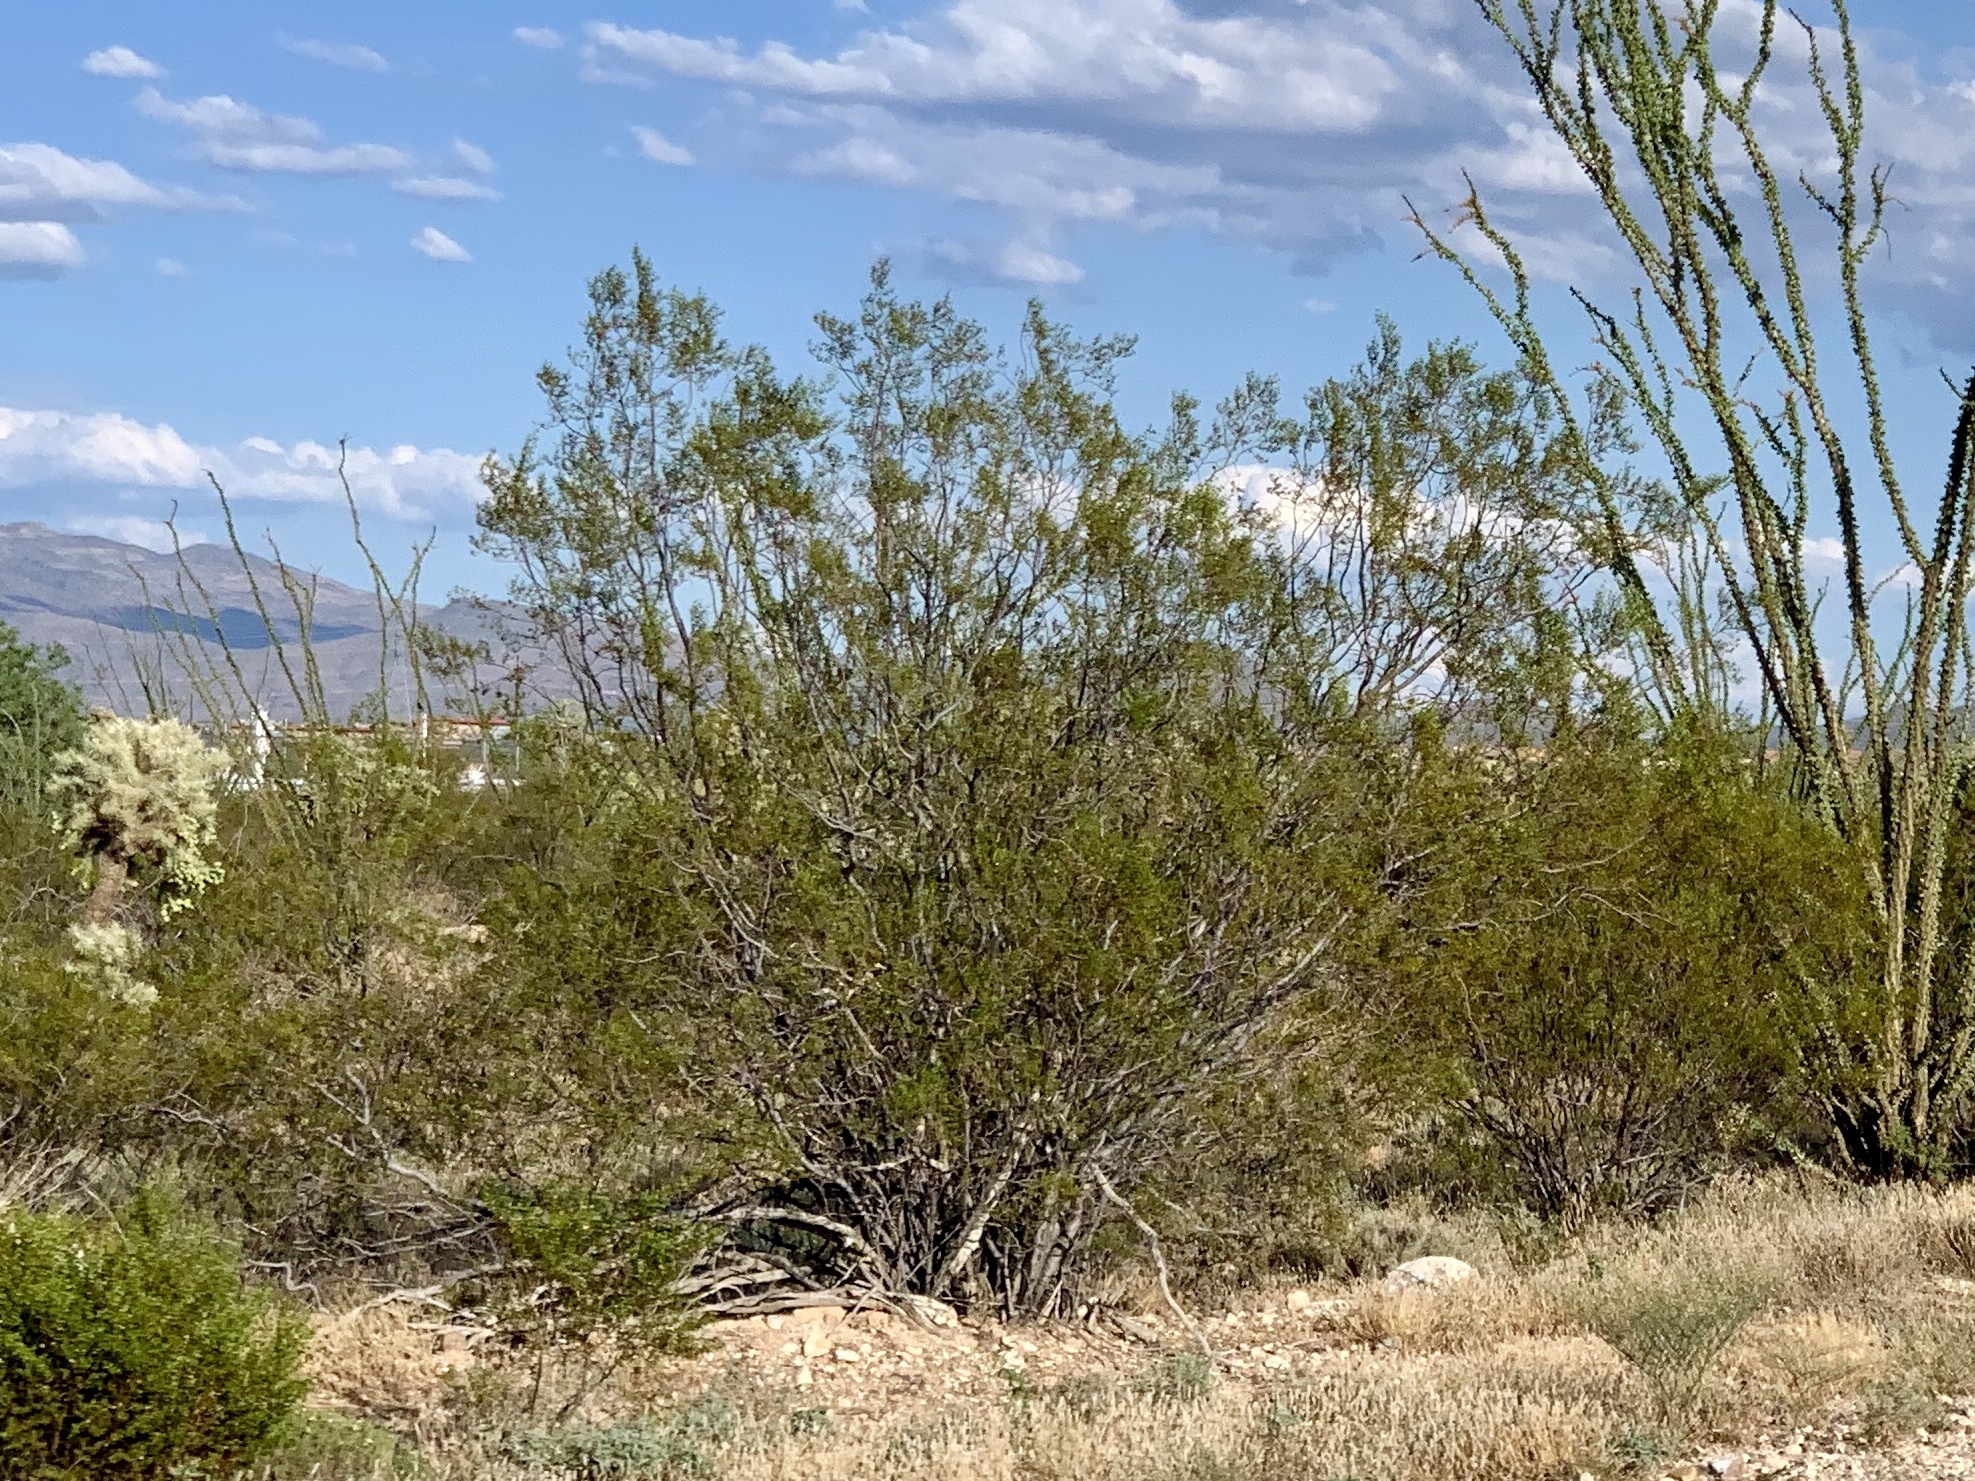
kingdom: Plantae
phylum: Tracheophyta
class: Magnoliopsida
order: Zygophyllales
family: Zygophyllaceae
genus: Larrea
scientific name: Larrea tridentata
